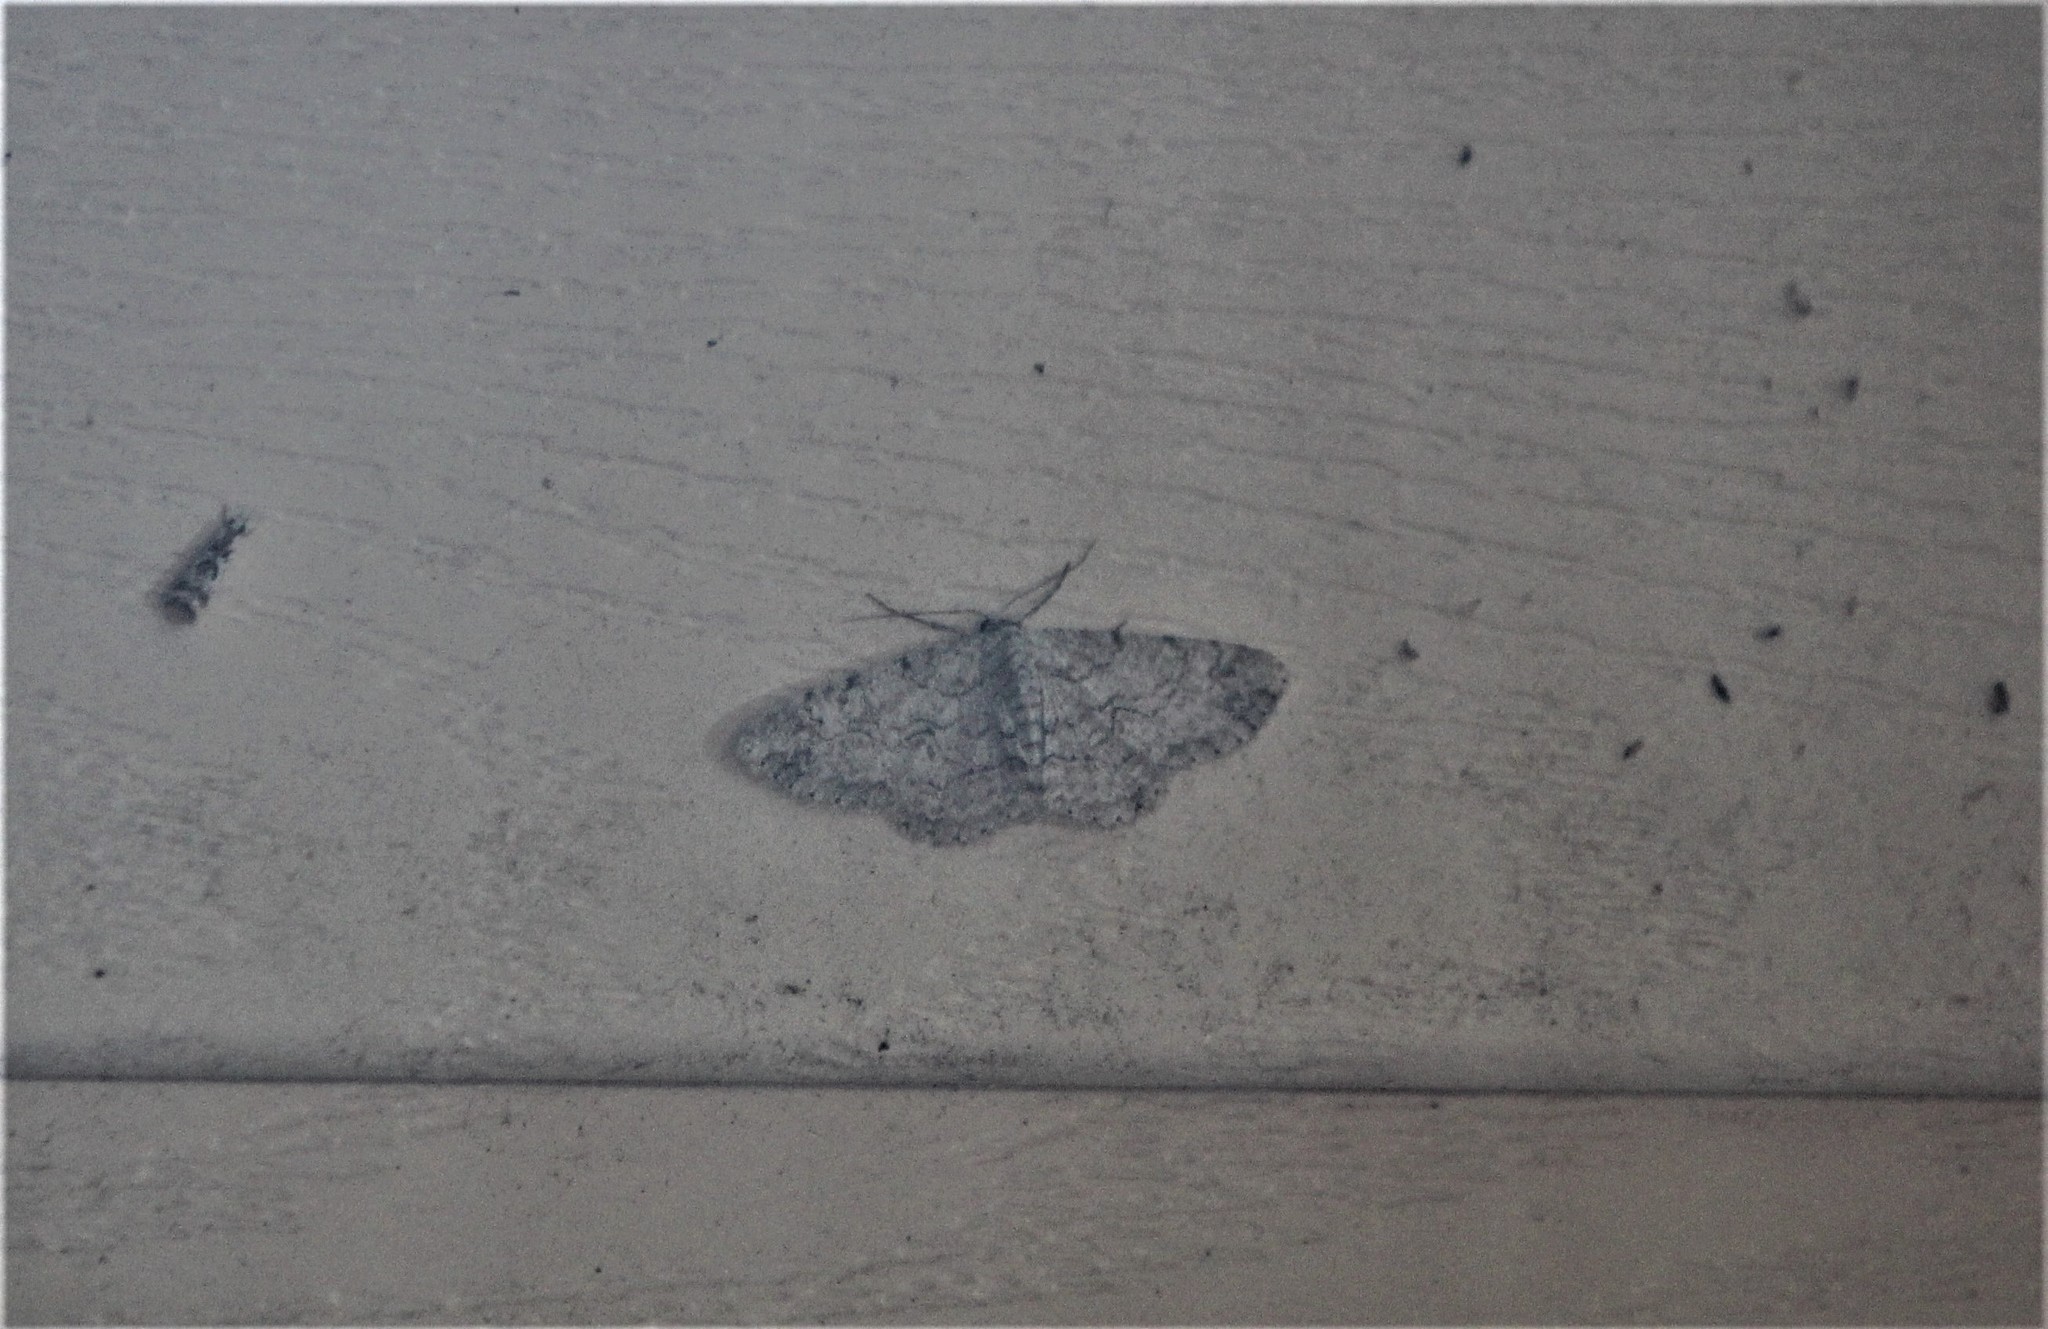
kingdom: Animalia
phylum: Arthropoda
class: Insecta
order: Lepidoptera
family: Geometridae
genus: Iridopsis
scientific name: Iridopsis defectaria
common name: Brown-shaded gray
